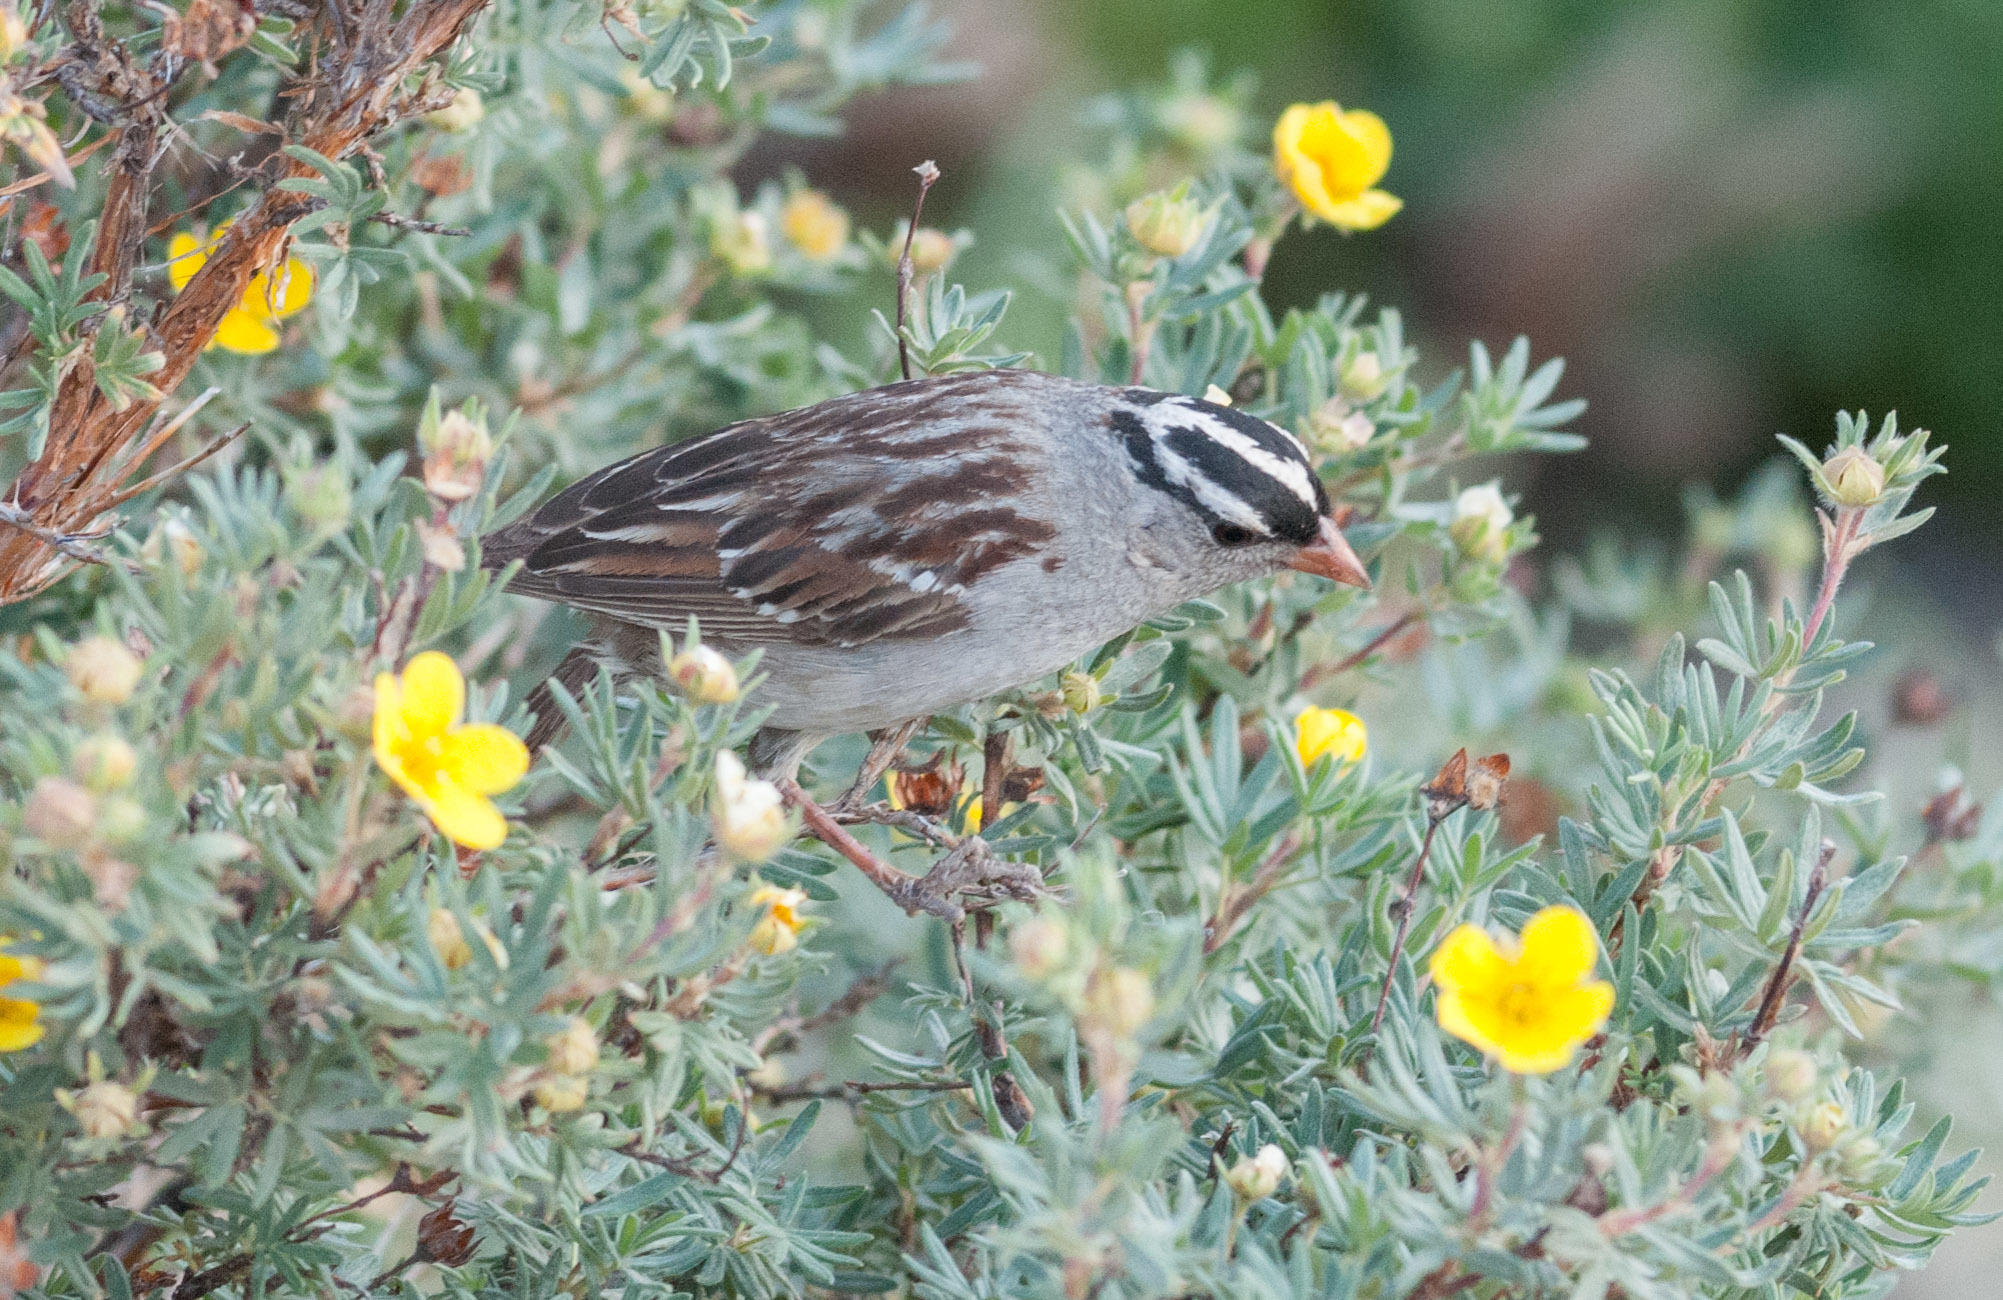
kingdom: Animalia
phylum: Chordata
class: Aves
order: Passeriformes
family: Passerellidae
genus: Zonotrichia
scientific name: Zonotrichia leucophrys
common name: White-crowned sparrow
